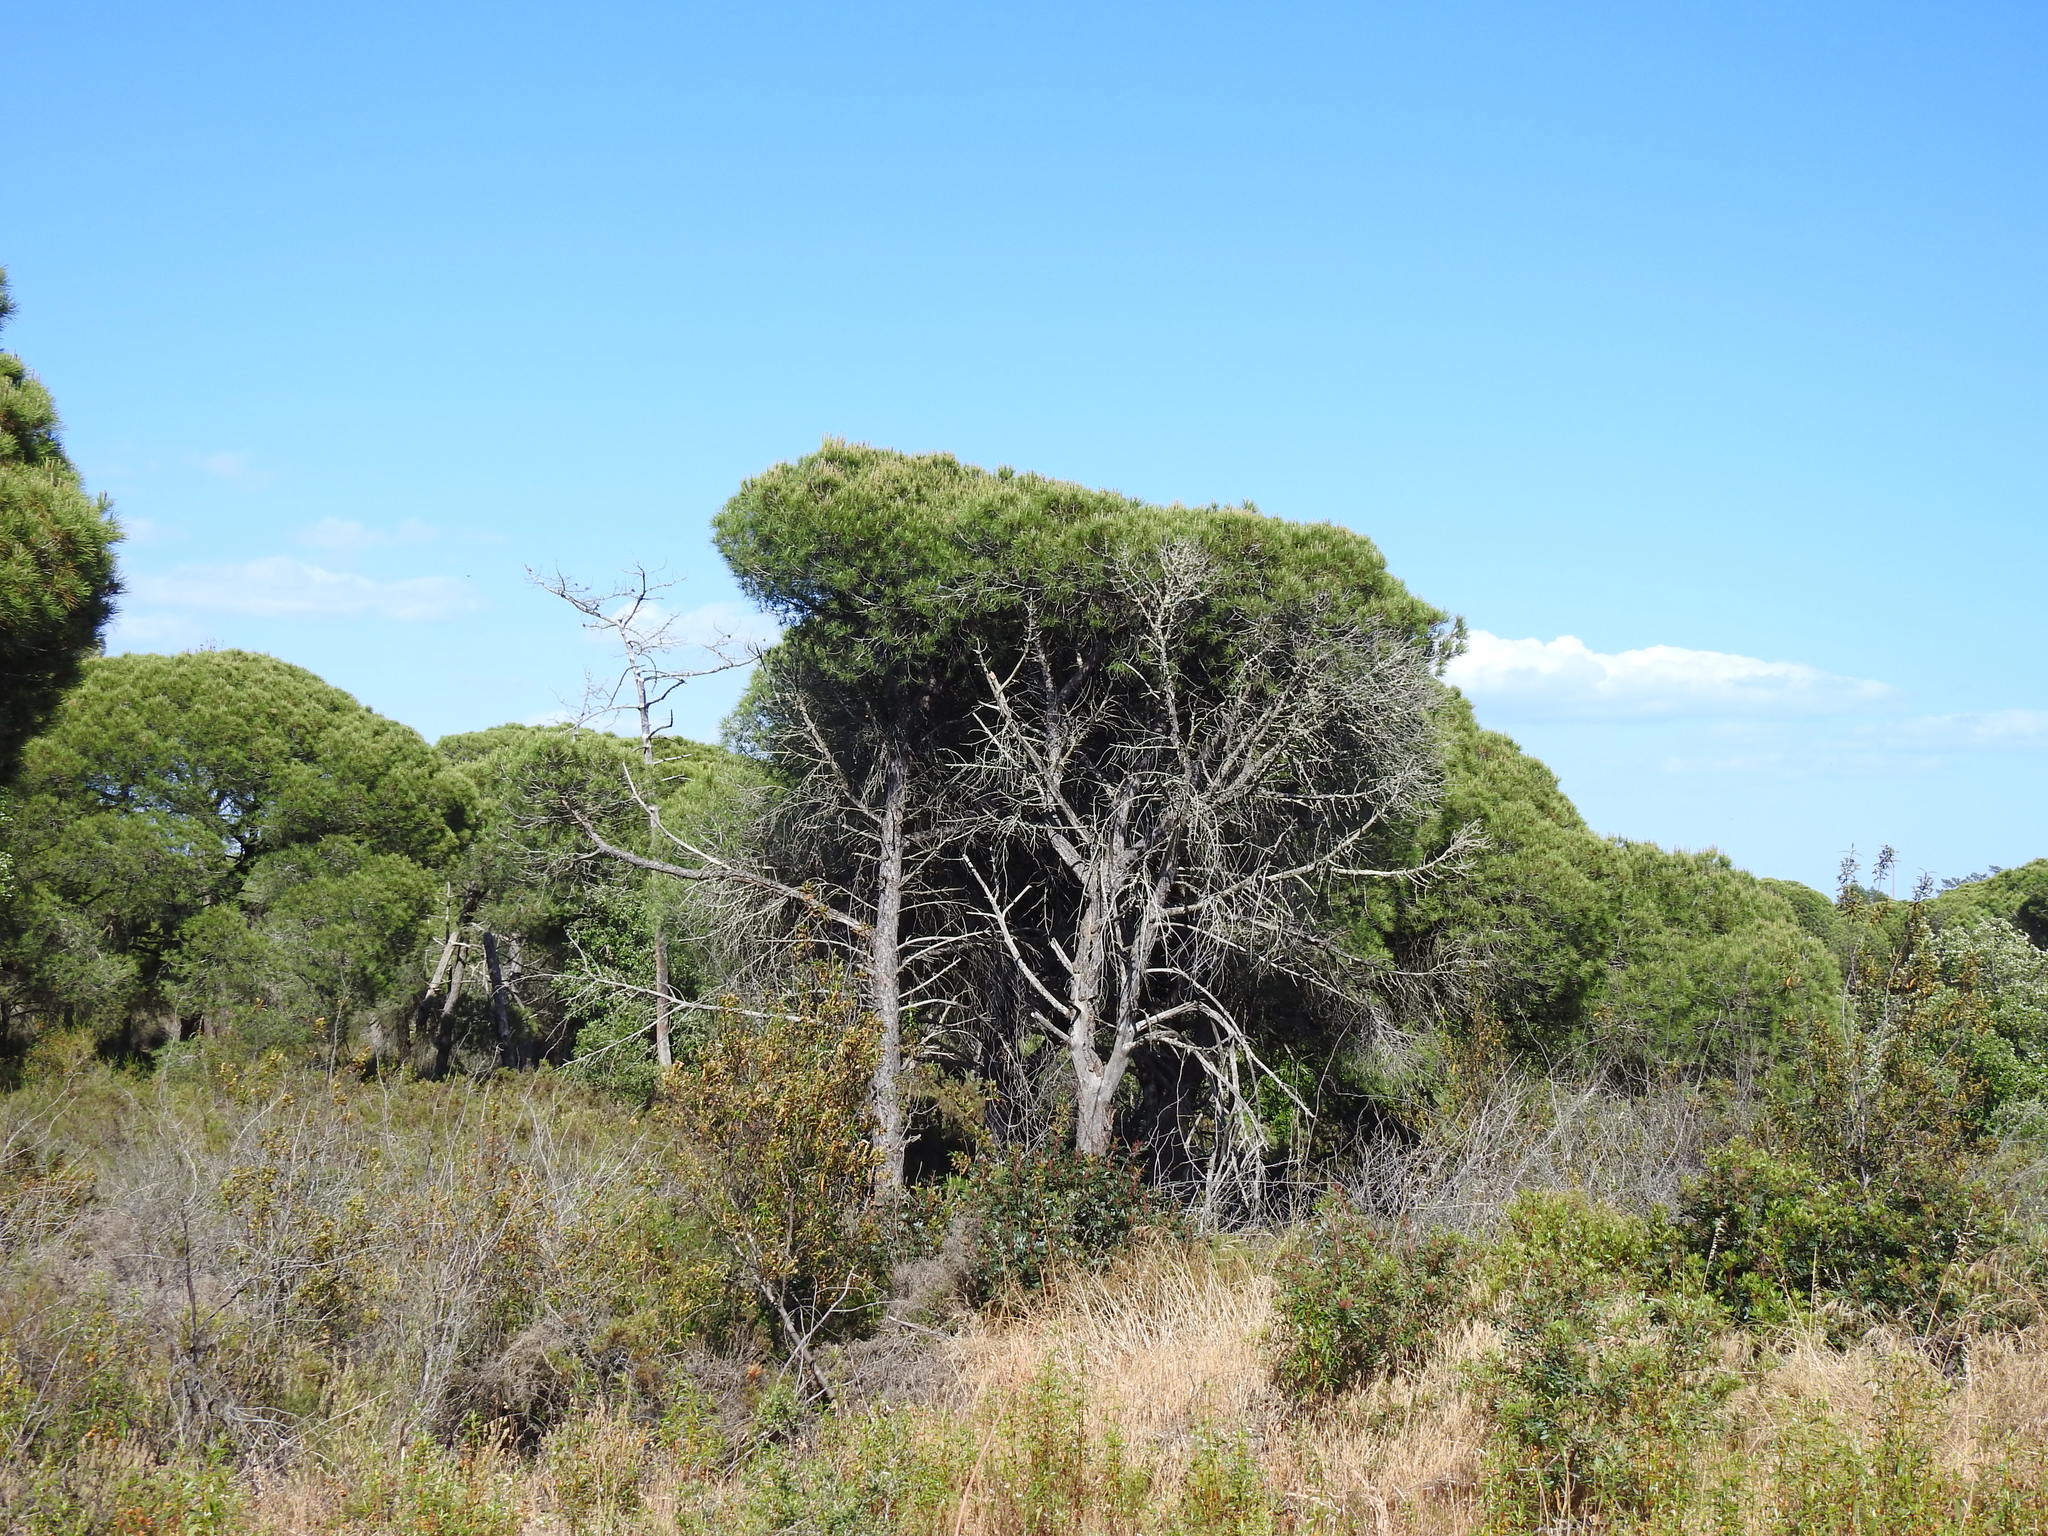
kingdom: Plantae
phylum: Tracheophyta
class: Pinopsida
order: Pinales
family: Pinaceae
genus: Pinus
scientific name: Pinus pinea
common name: Italian stone pine
